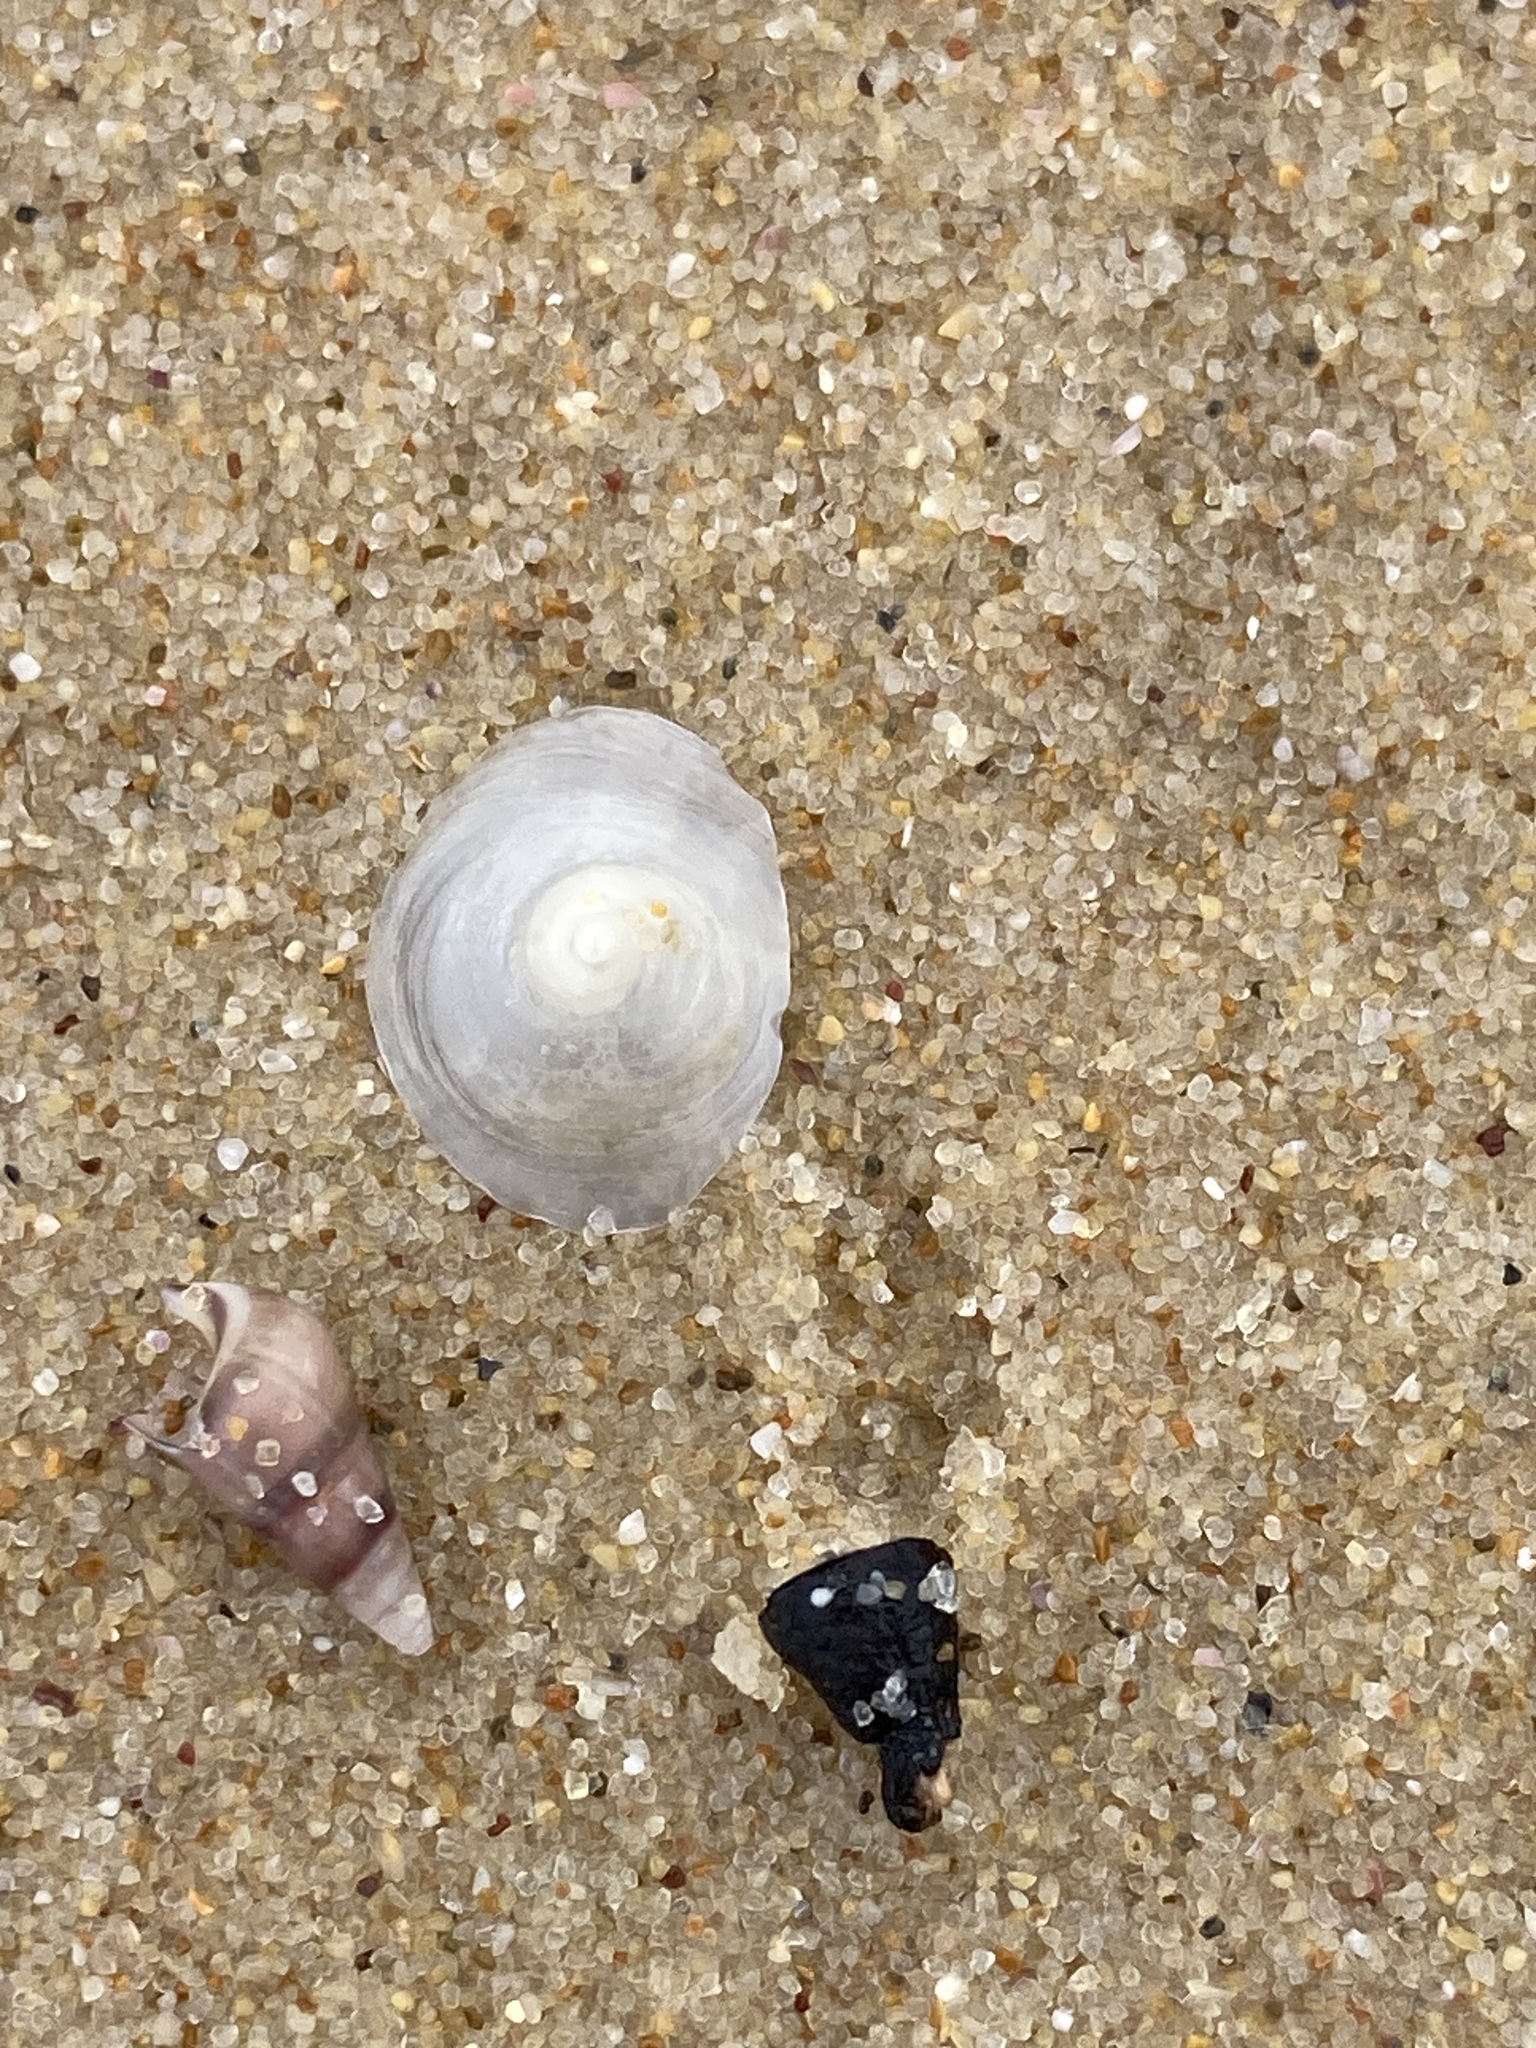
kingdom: Animalia
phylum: Mollusca
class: Gastropoda
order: Littorinimorpha
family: Calyptraeidae
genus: Sigapatella
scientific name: Sigapatella hedleyi
